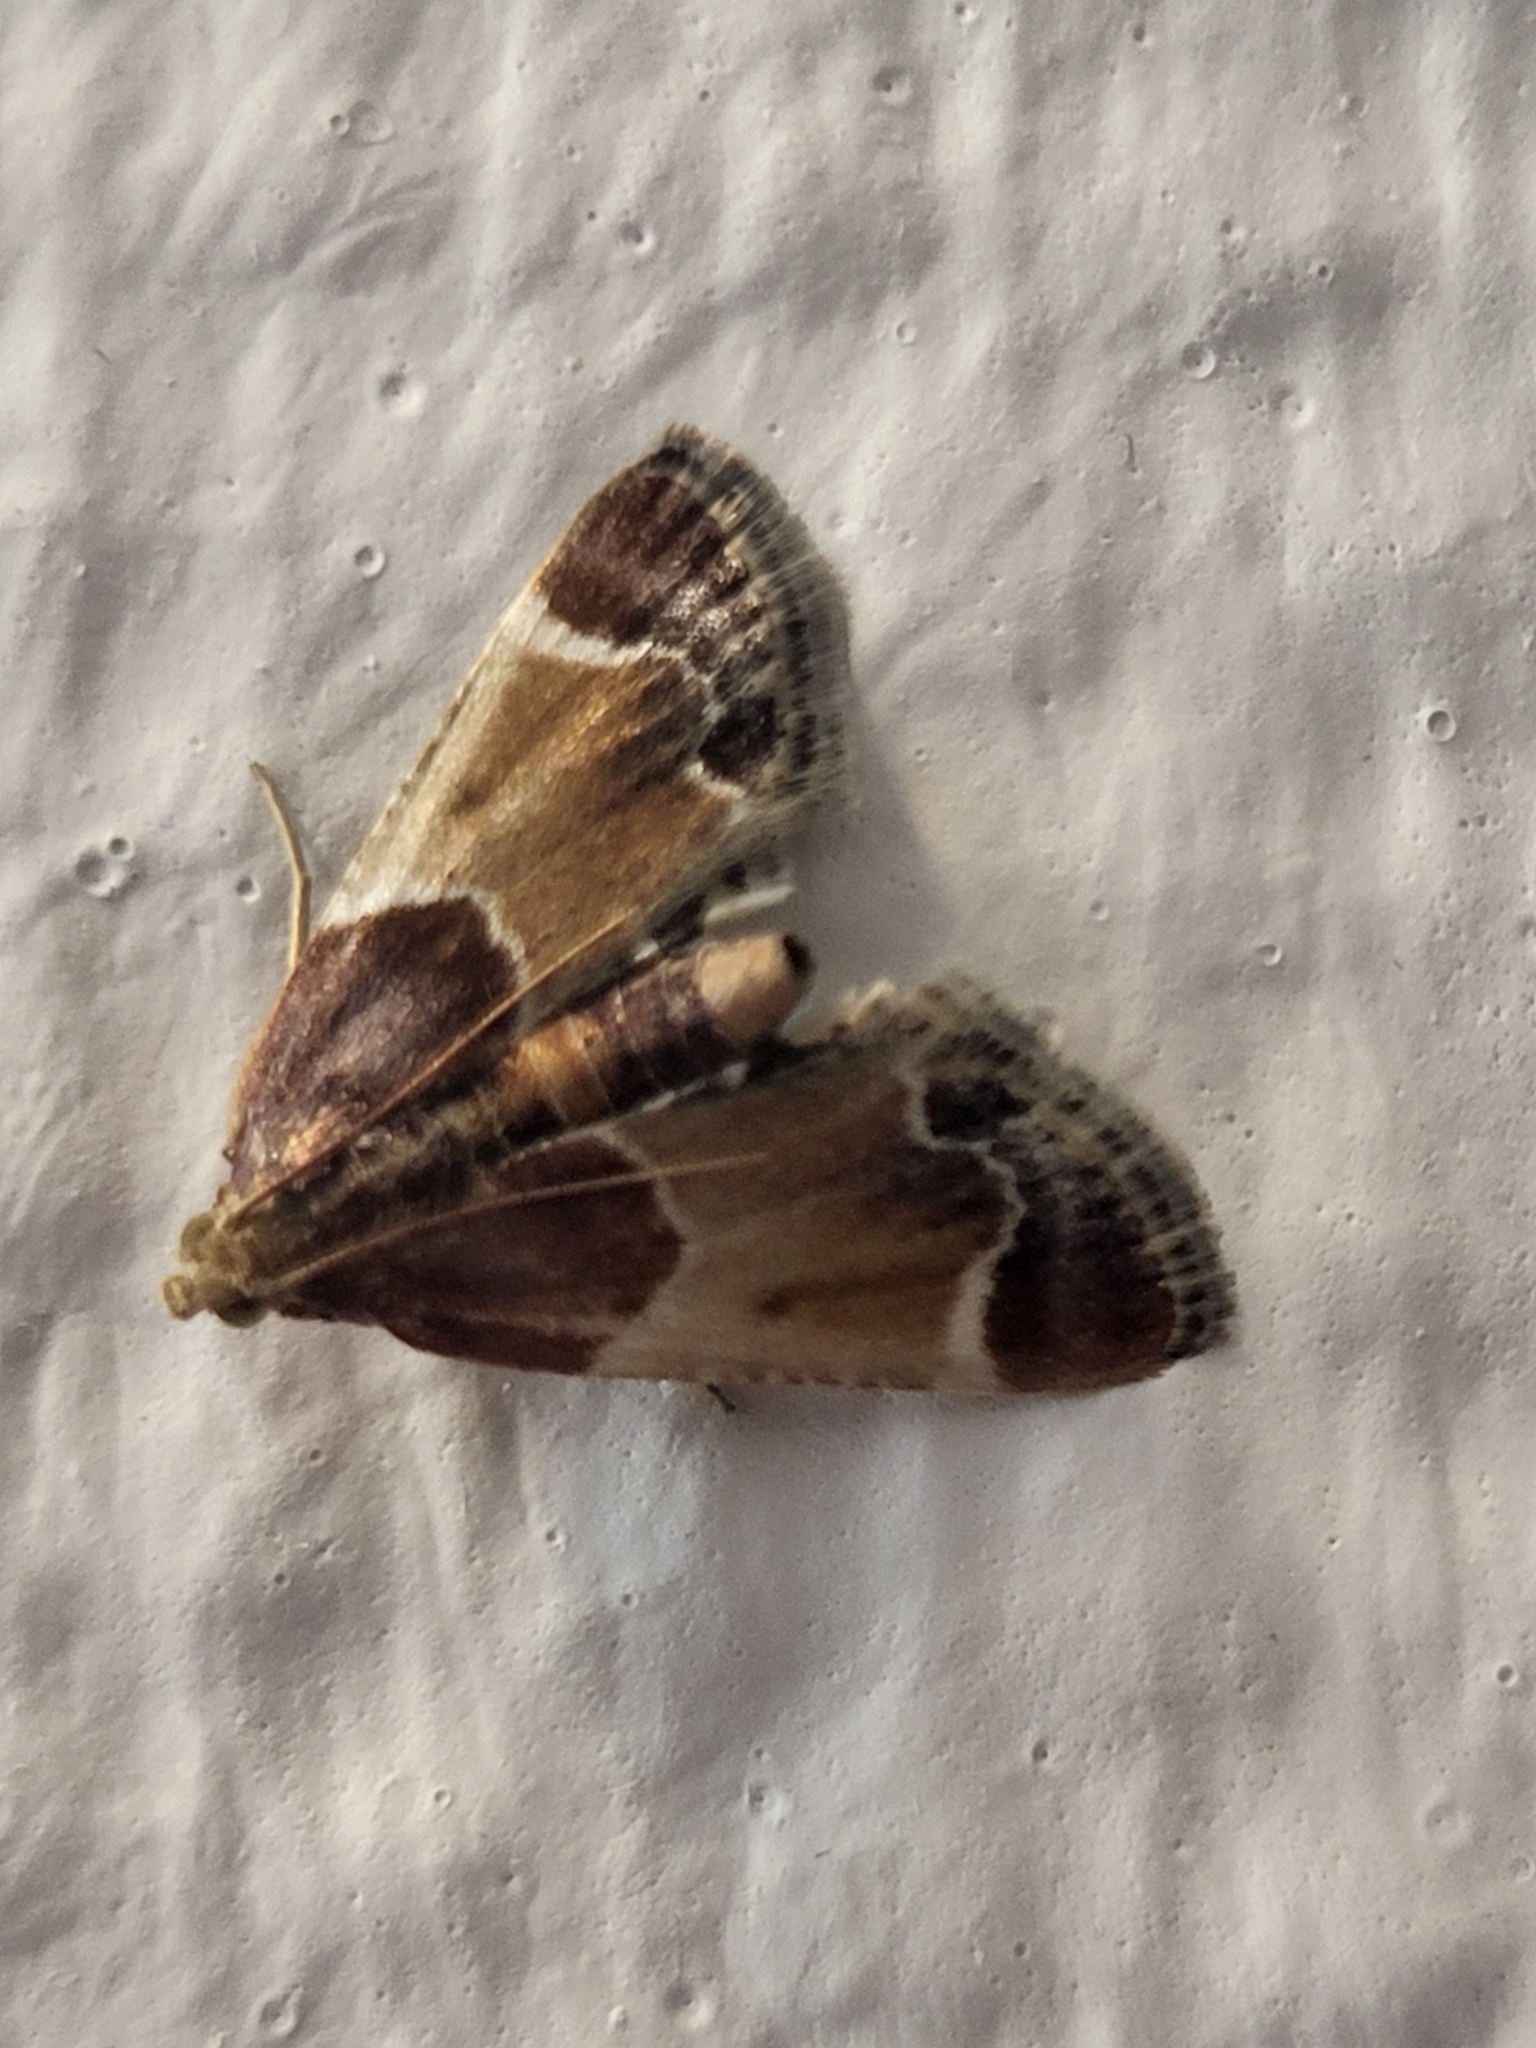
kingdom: Animalia
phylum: Arthropoda
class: Insecta
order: Lepidoptera
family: Pyralidae
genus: Pyralis
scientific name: Pyralis farinalis
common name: Meal moth
